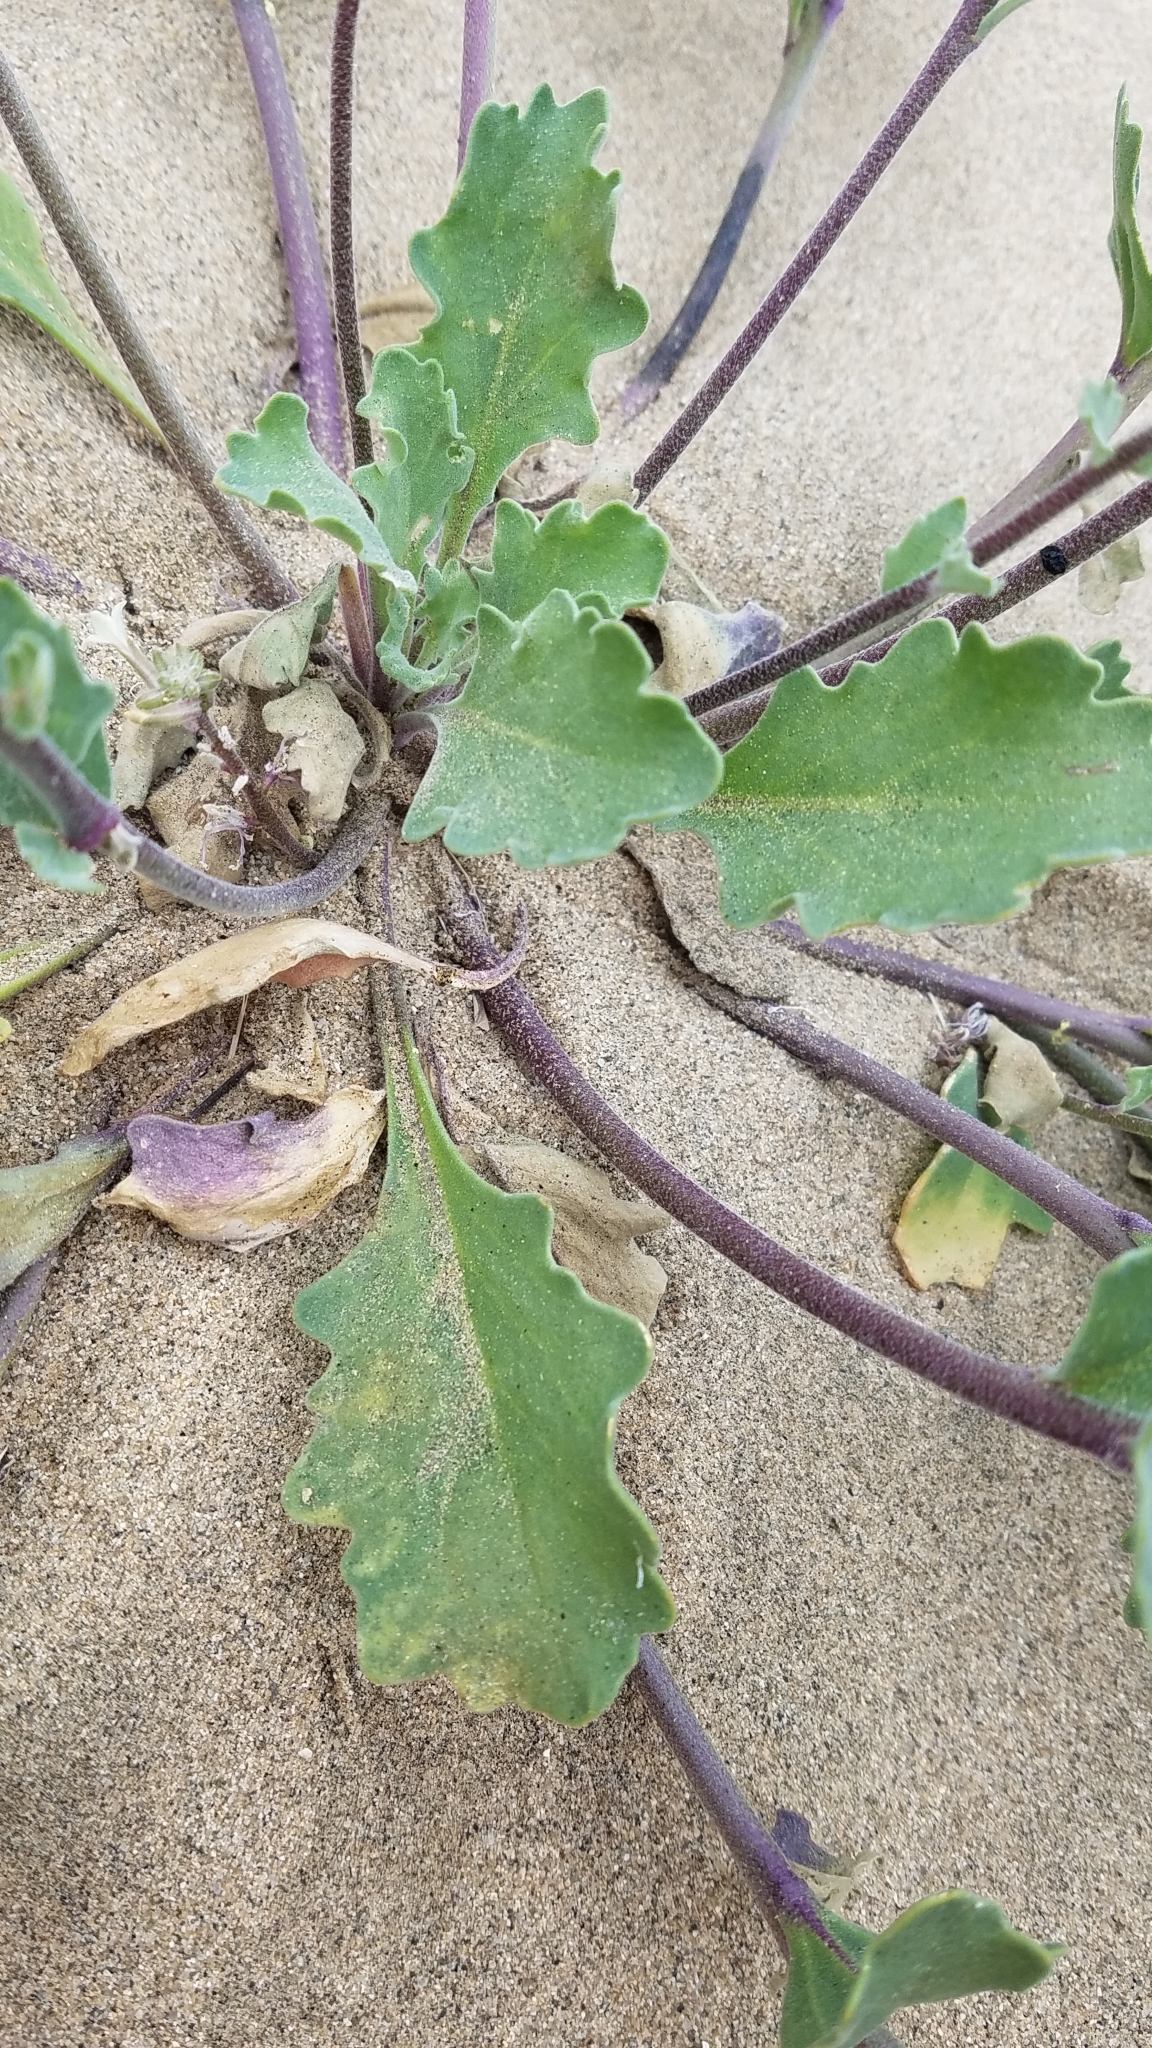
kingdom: Plantae
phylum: Tracheophyta
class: Magnoliopsida
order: Brassicales
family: Brassicaceae
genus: Dithyrea
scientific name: Dithyrea californica
